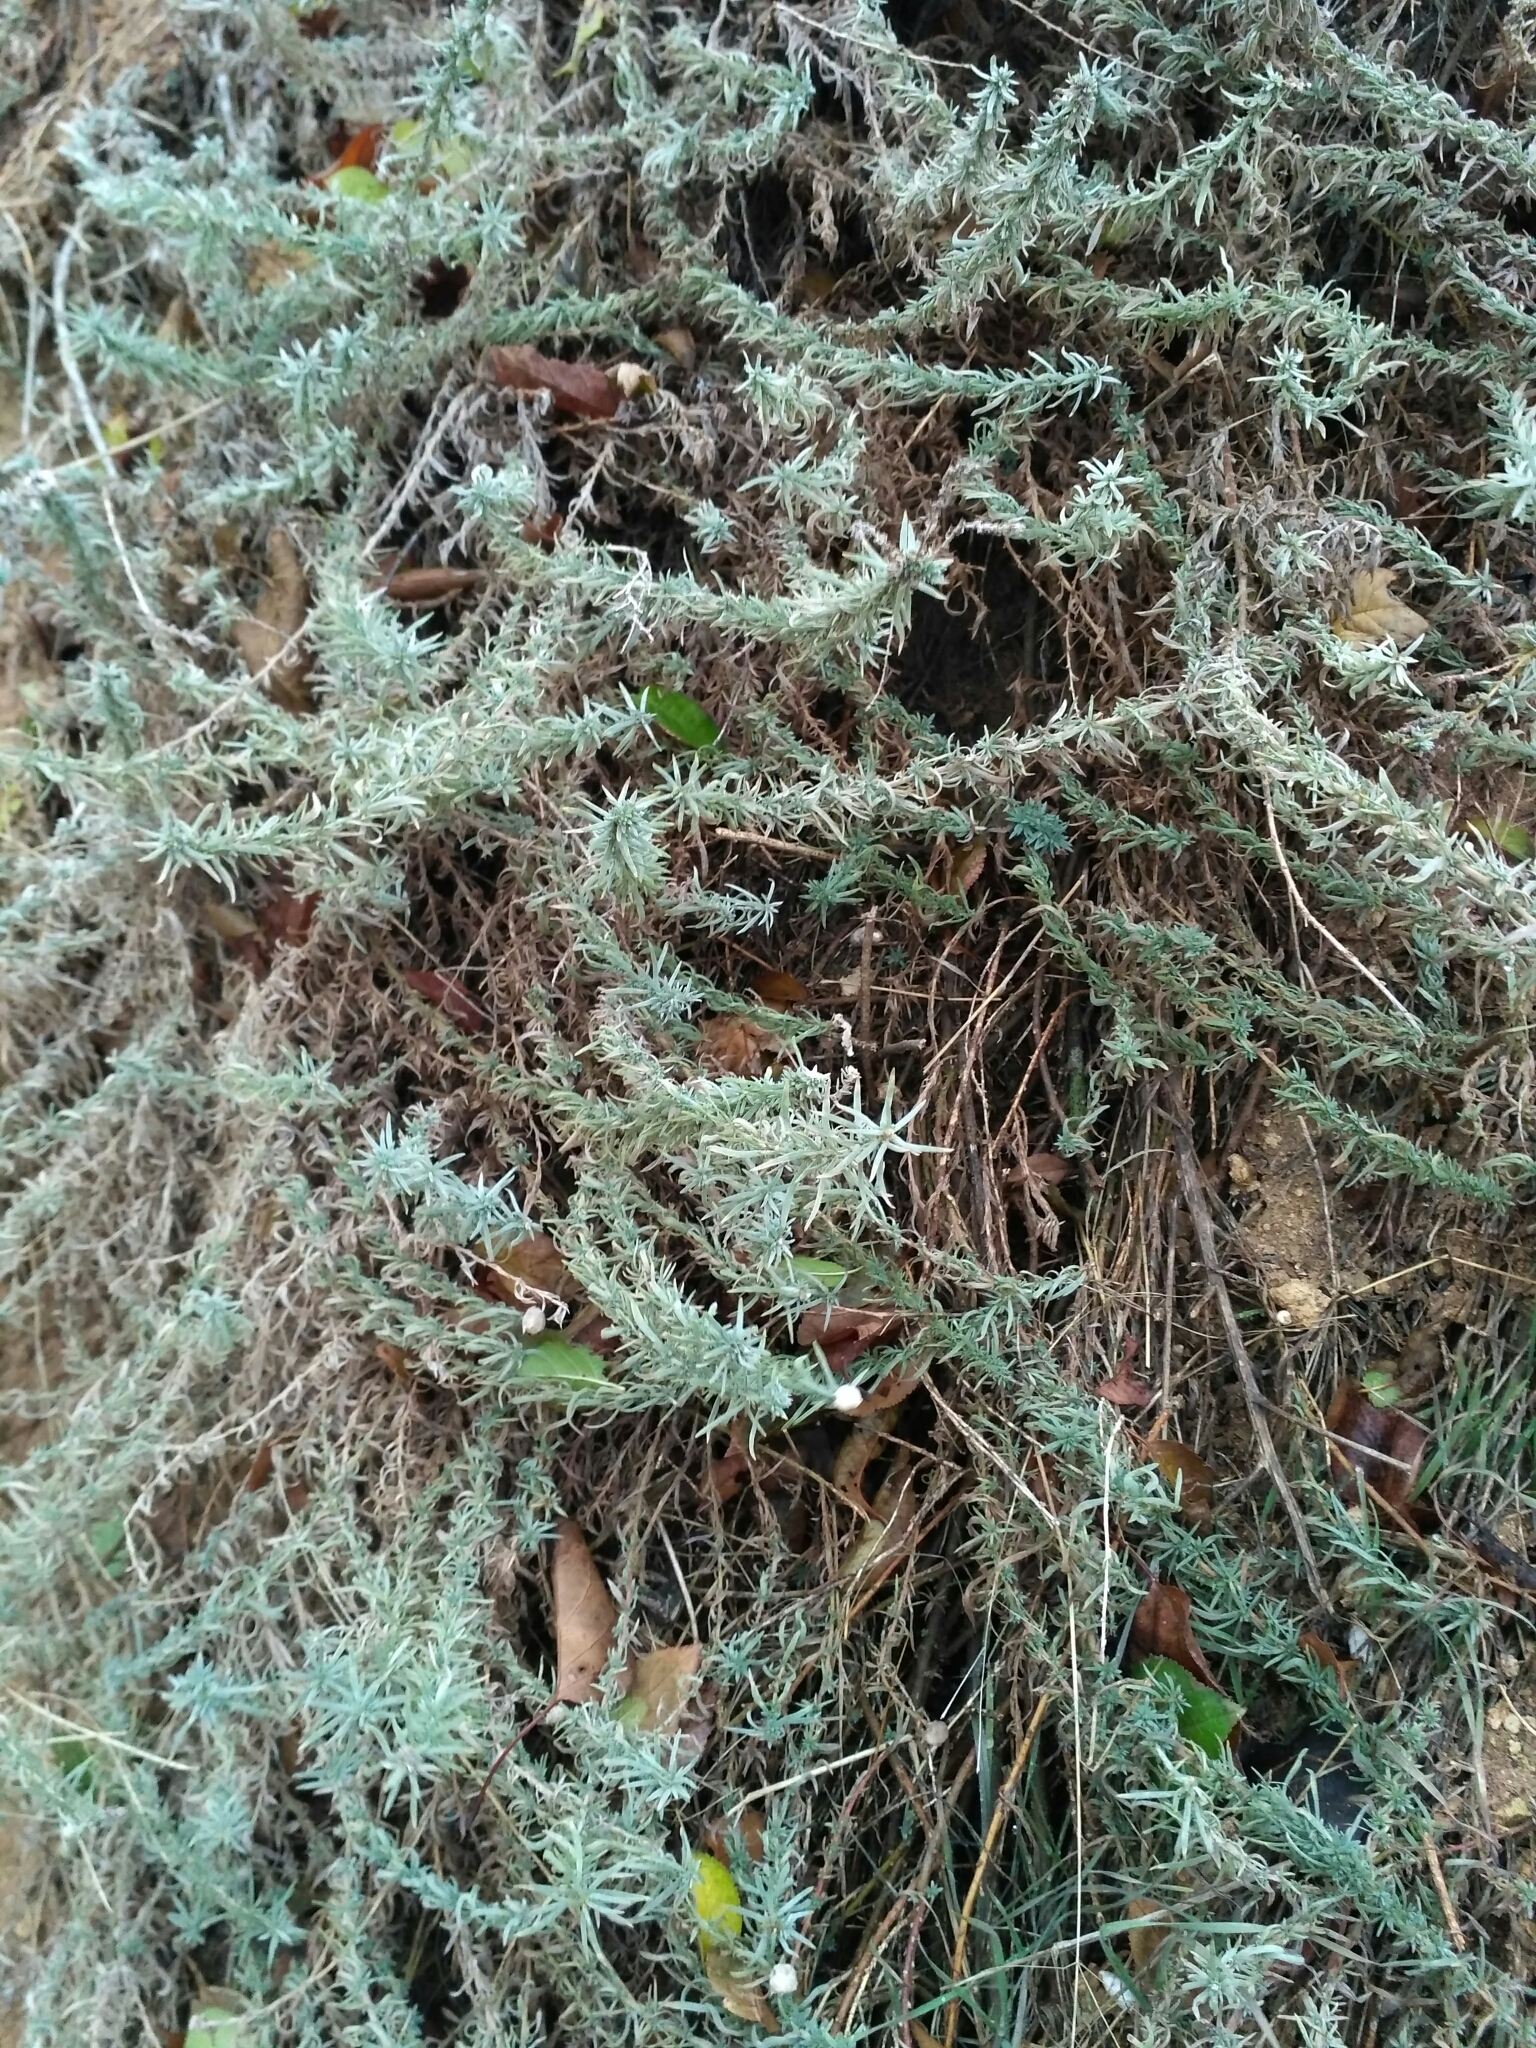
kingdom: Plantae
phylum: Tracheophyta
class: Magnoliopsida
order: Caryophyllales
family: Amaranthaceae
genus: Bassia
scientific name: Bassia prostrata
